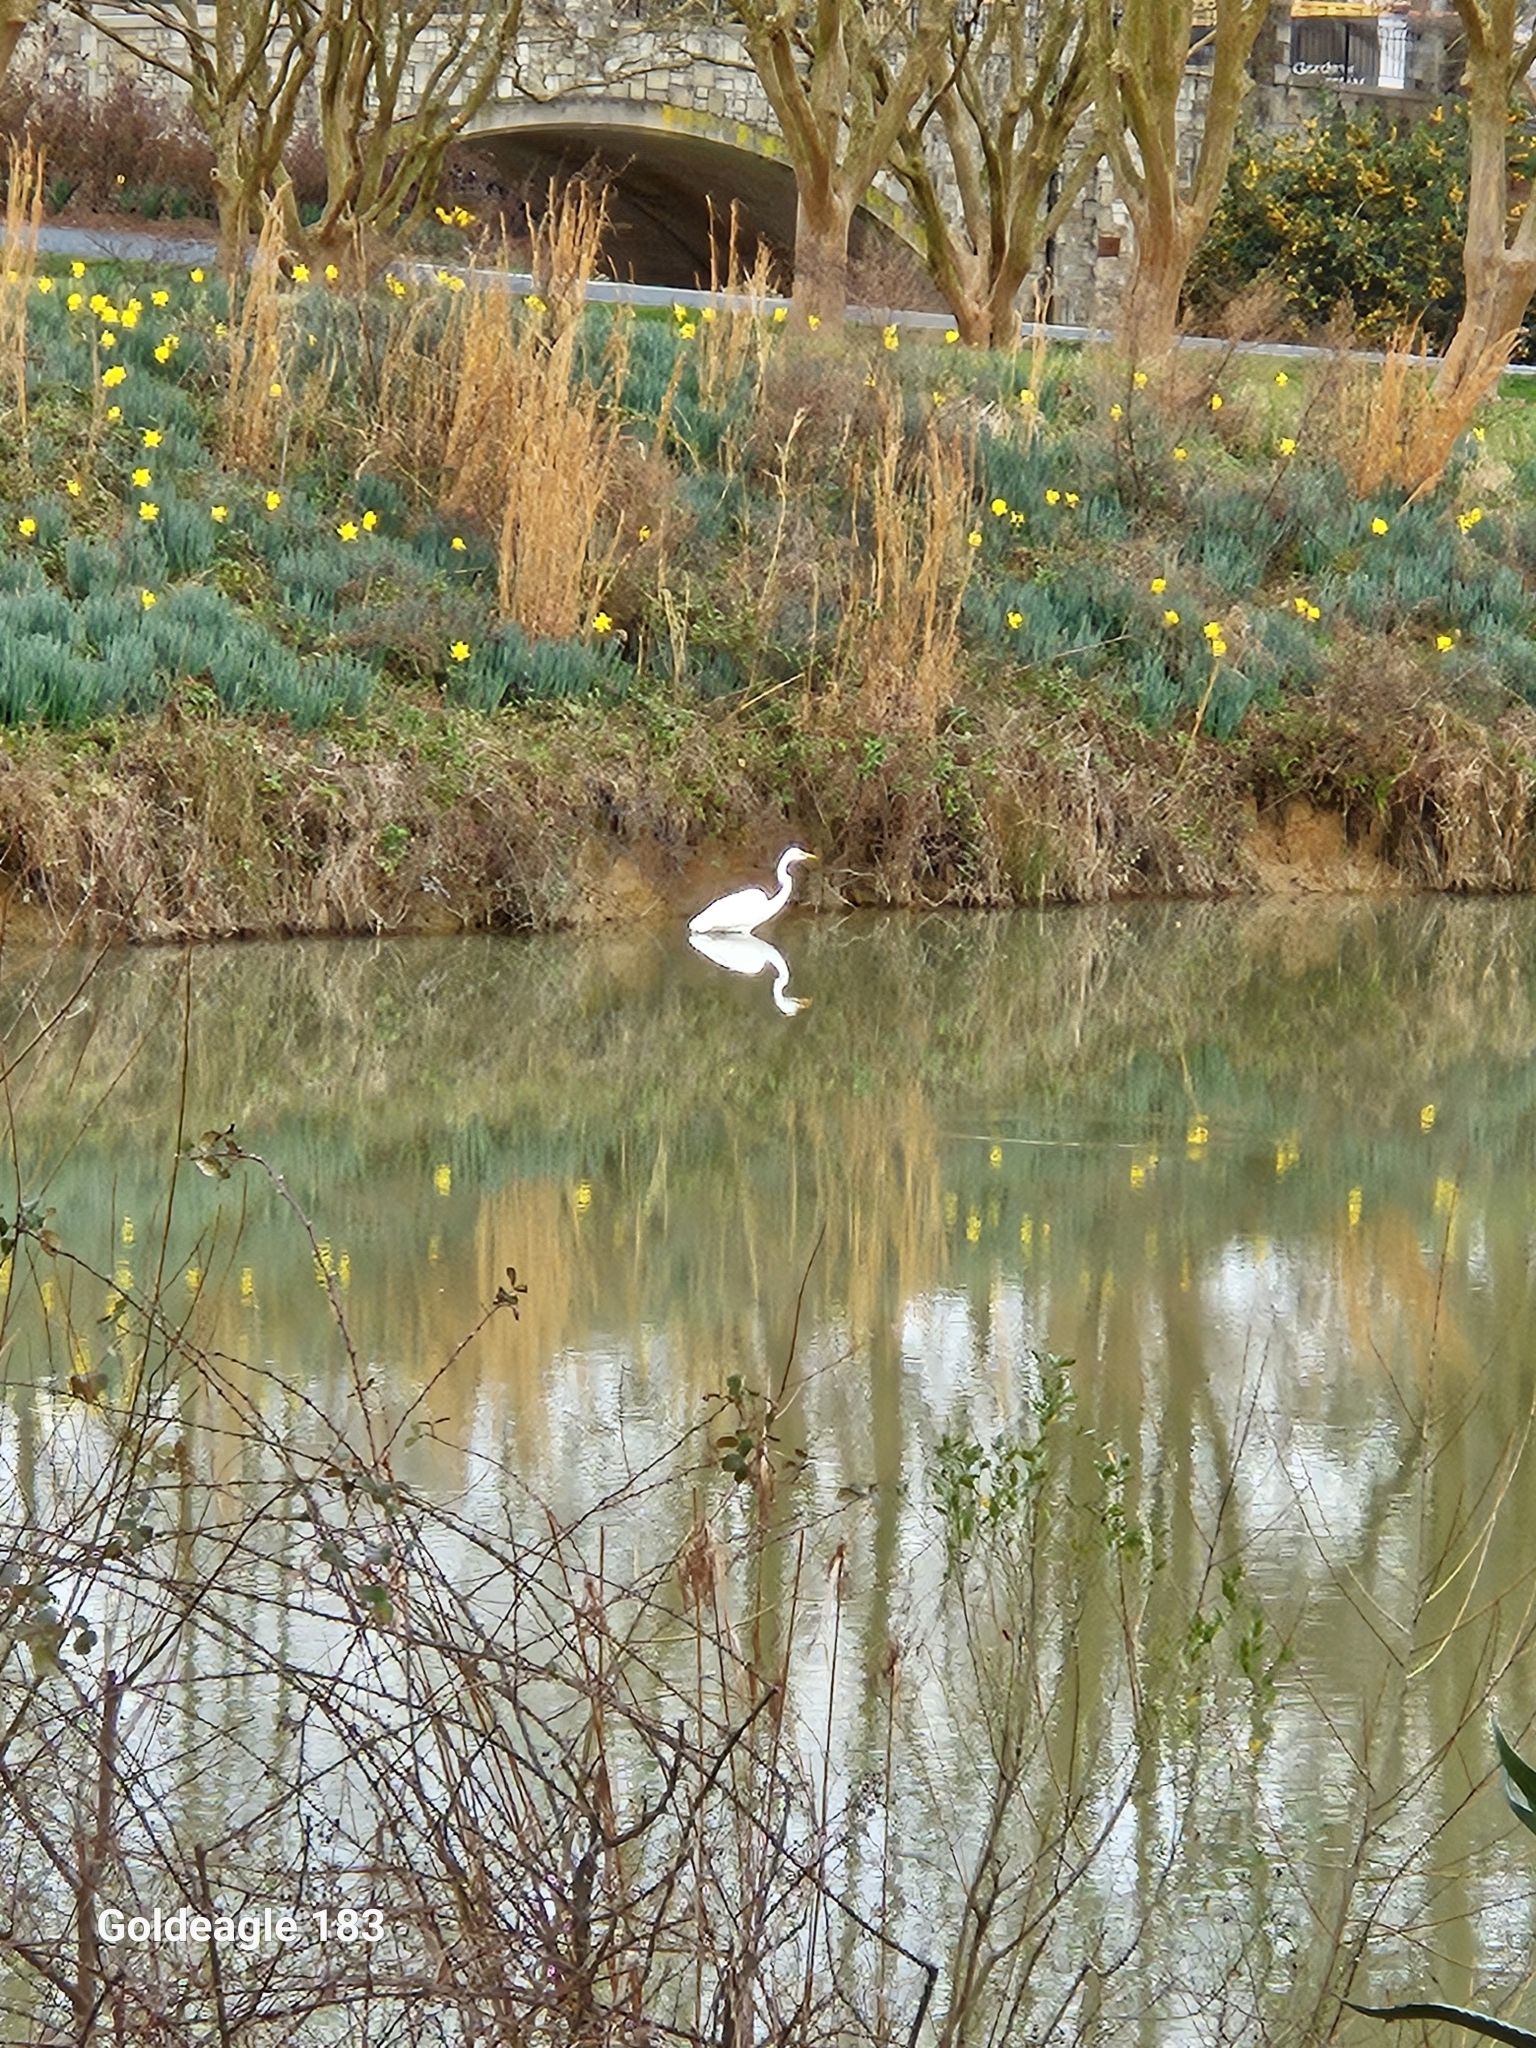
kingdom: Animalia
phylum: Chordata
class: Aves
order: Pelecaniformes
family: Ardeidae
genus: Ardea
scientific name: Ardea alba
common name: Great egret
